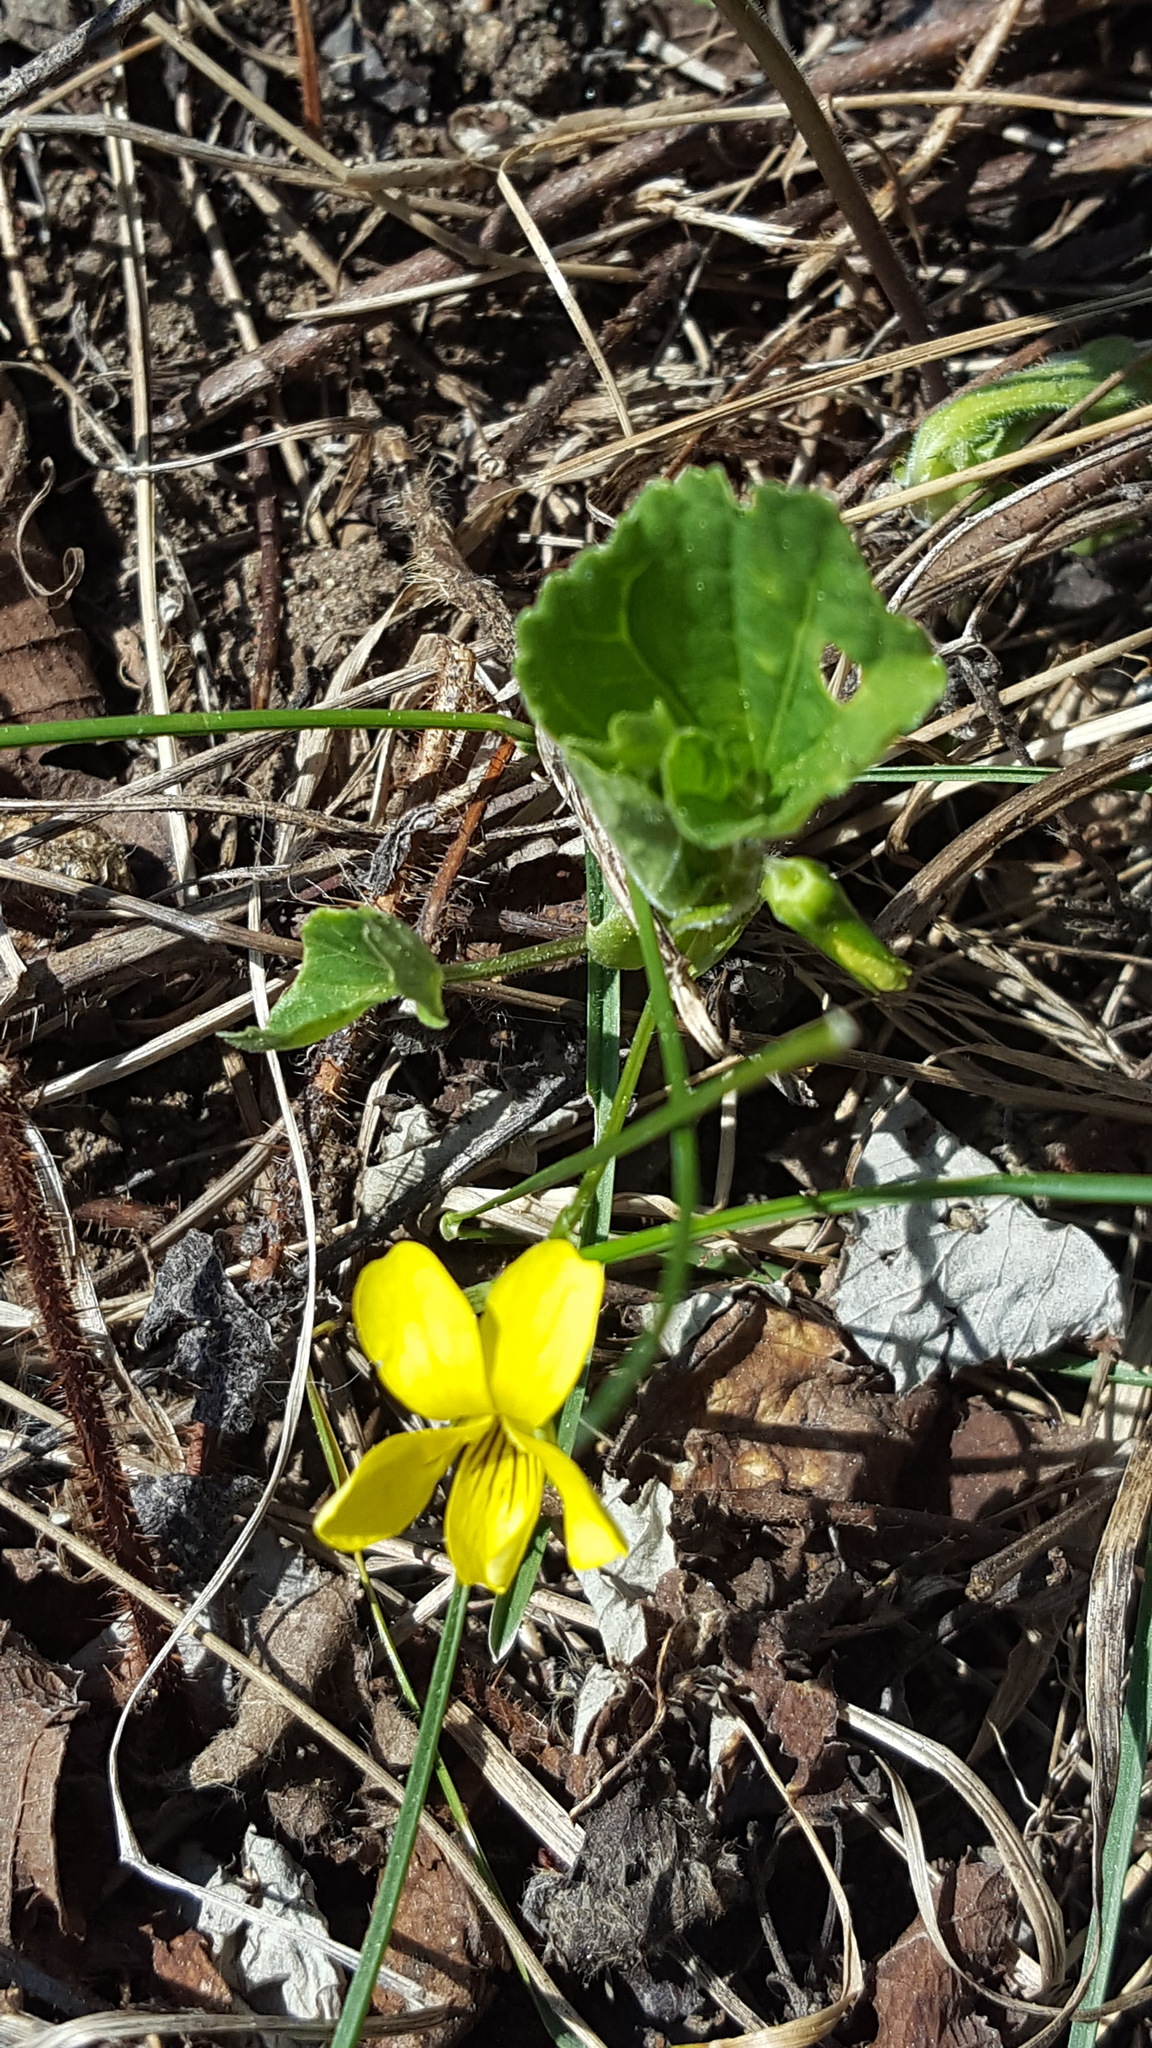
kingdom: Plantae
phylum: Tracheophyta
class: Magnoliopsida
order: Malpighiales
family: Violaceae
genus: Viola
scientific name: Viola eriocarpa
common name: Smooth yellow violet
